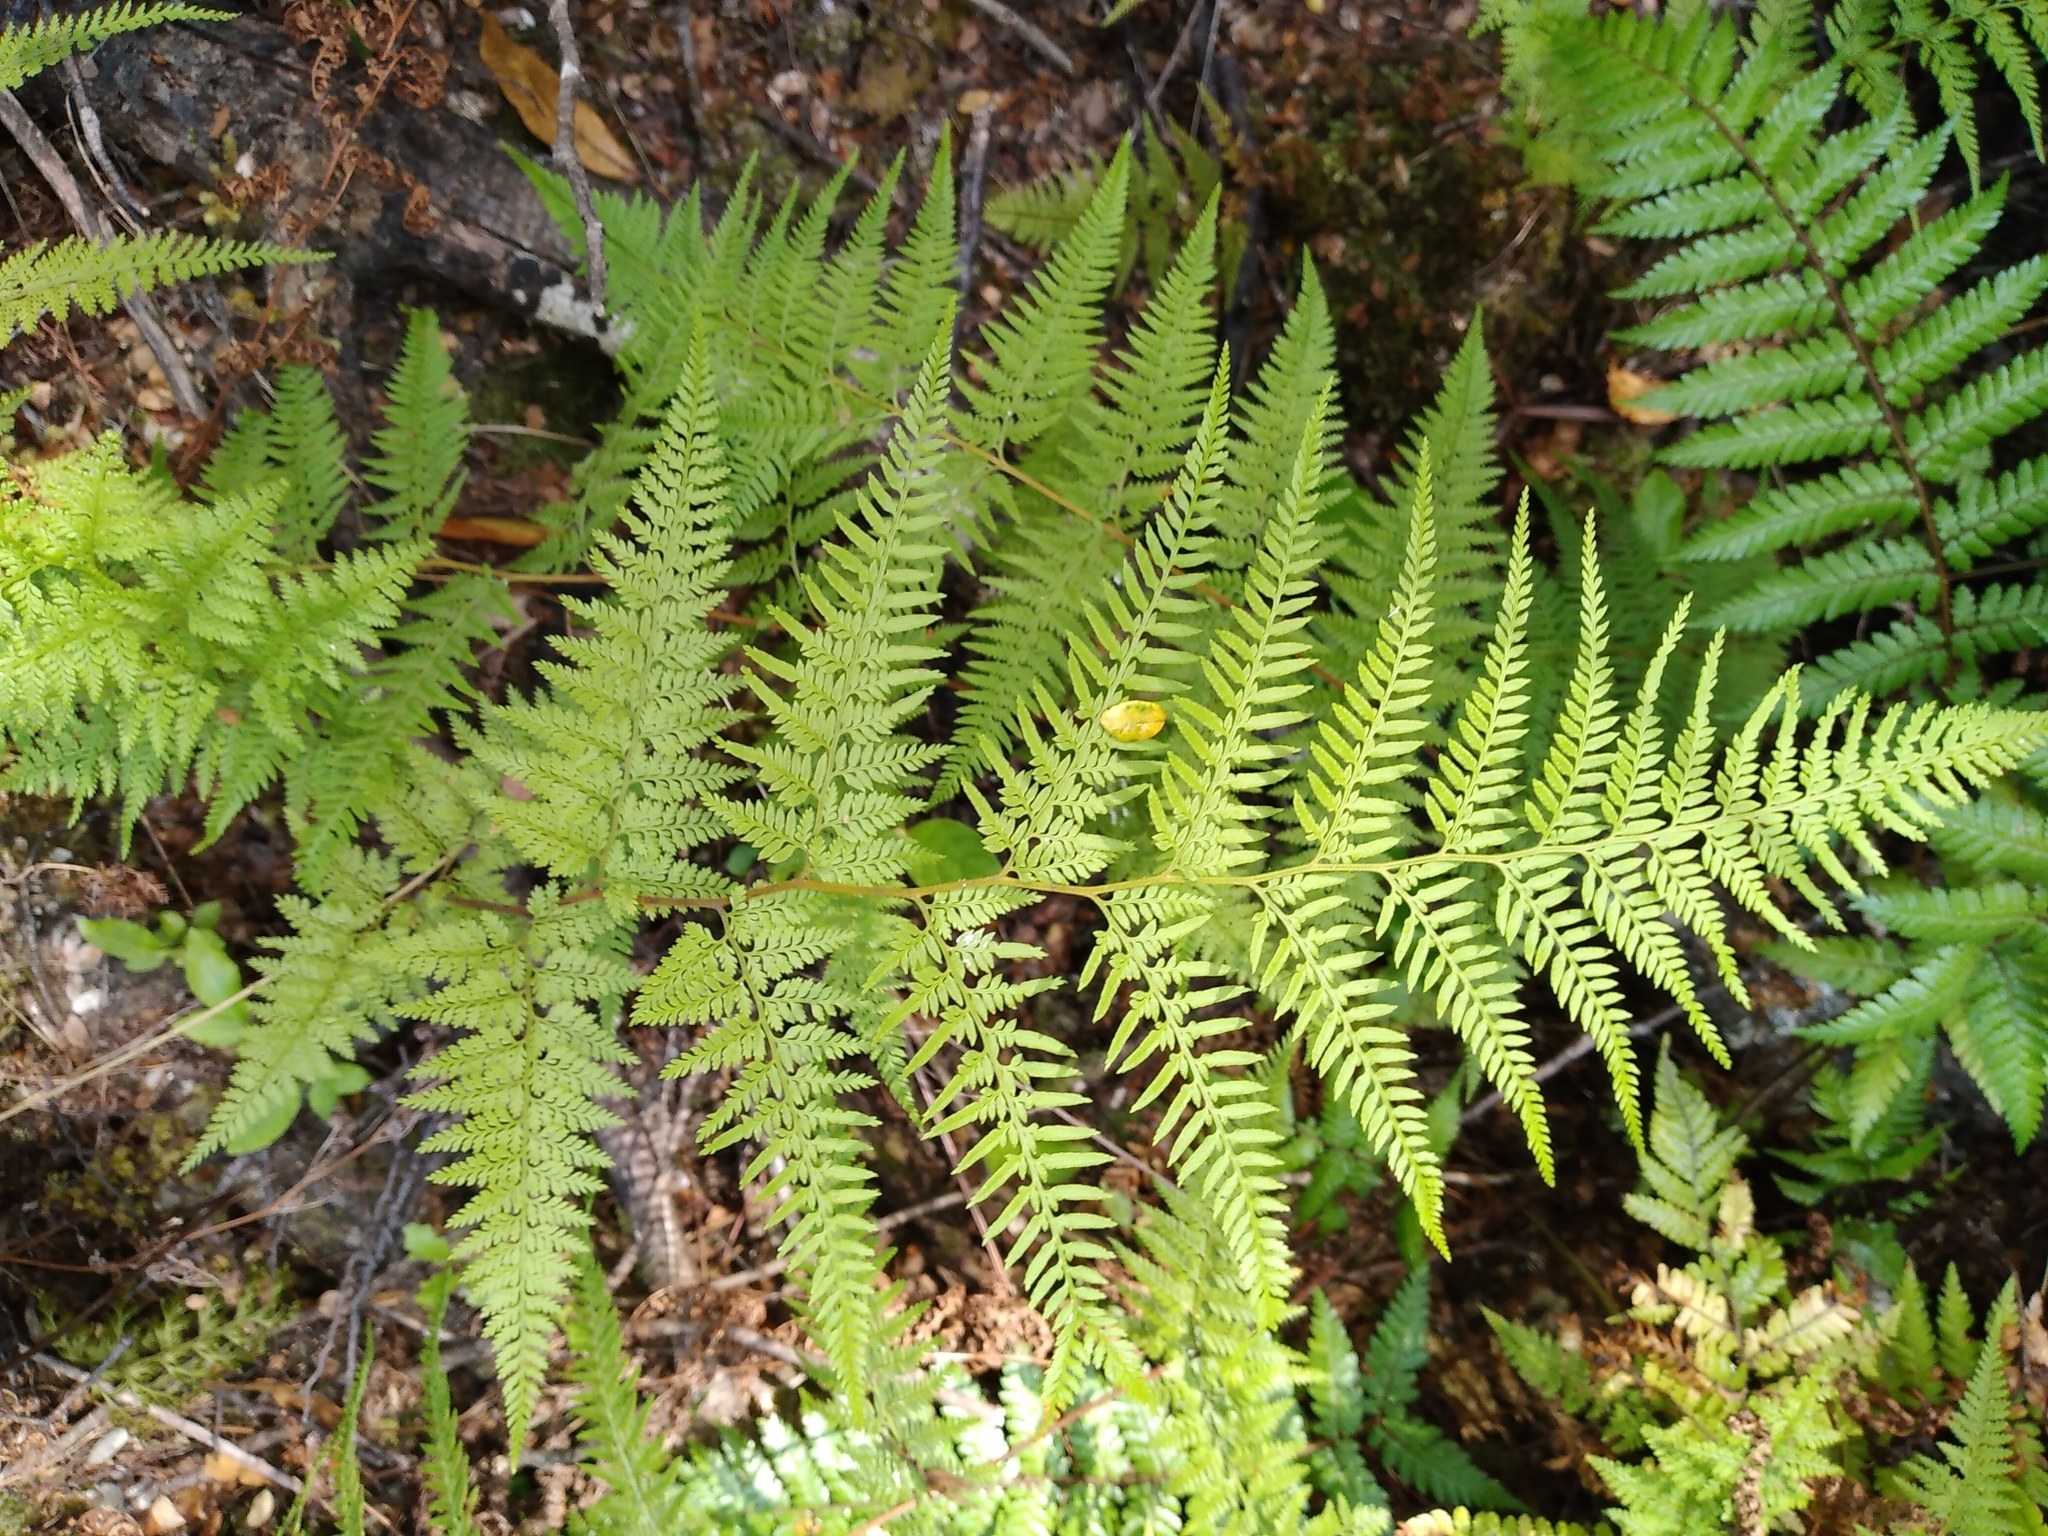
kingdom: Plantae
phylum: Tracheophyta
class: Polypodiopsida
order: Polypodiales
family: Dennstaedtiaceae
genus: Paesia
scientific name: Paesia scaberula
